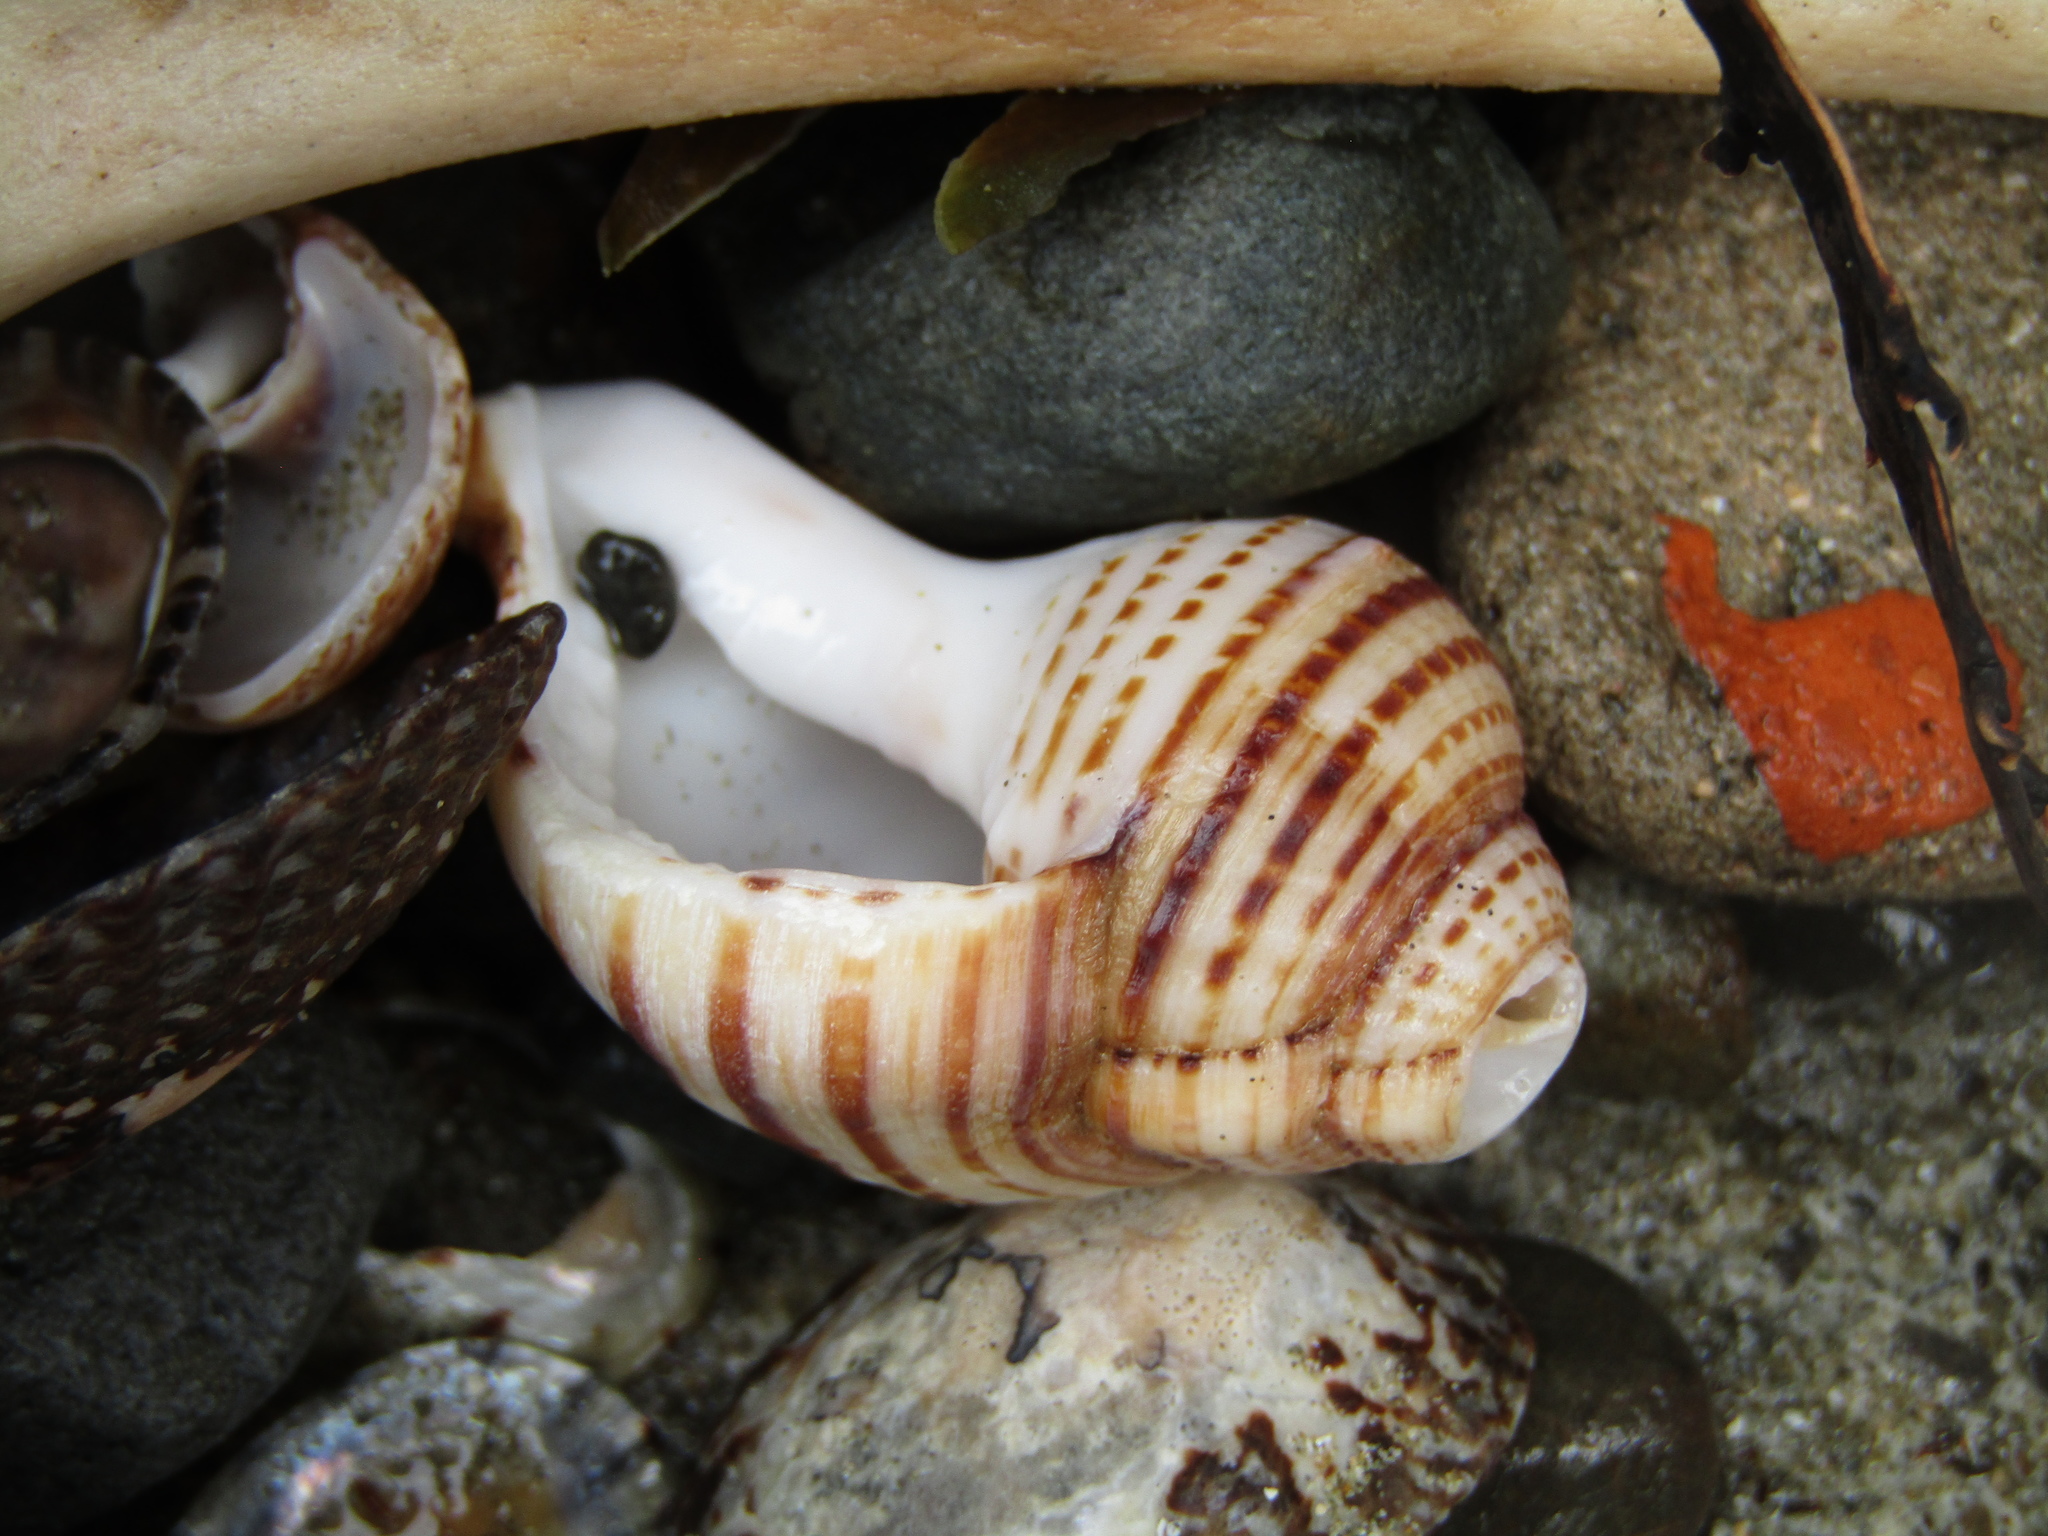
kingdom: Animalia
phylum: Mollusca
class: Gastropoda
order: Littorinimorpha
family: Cymatiidae
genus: Argobuccinum
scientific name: Argobuccinum pustulosum
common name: Pustular triton
